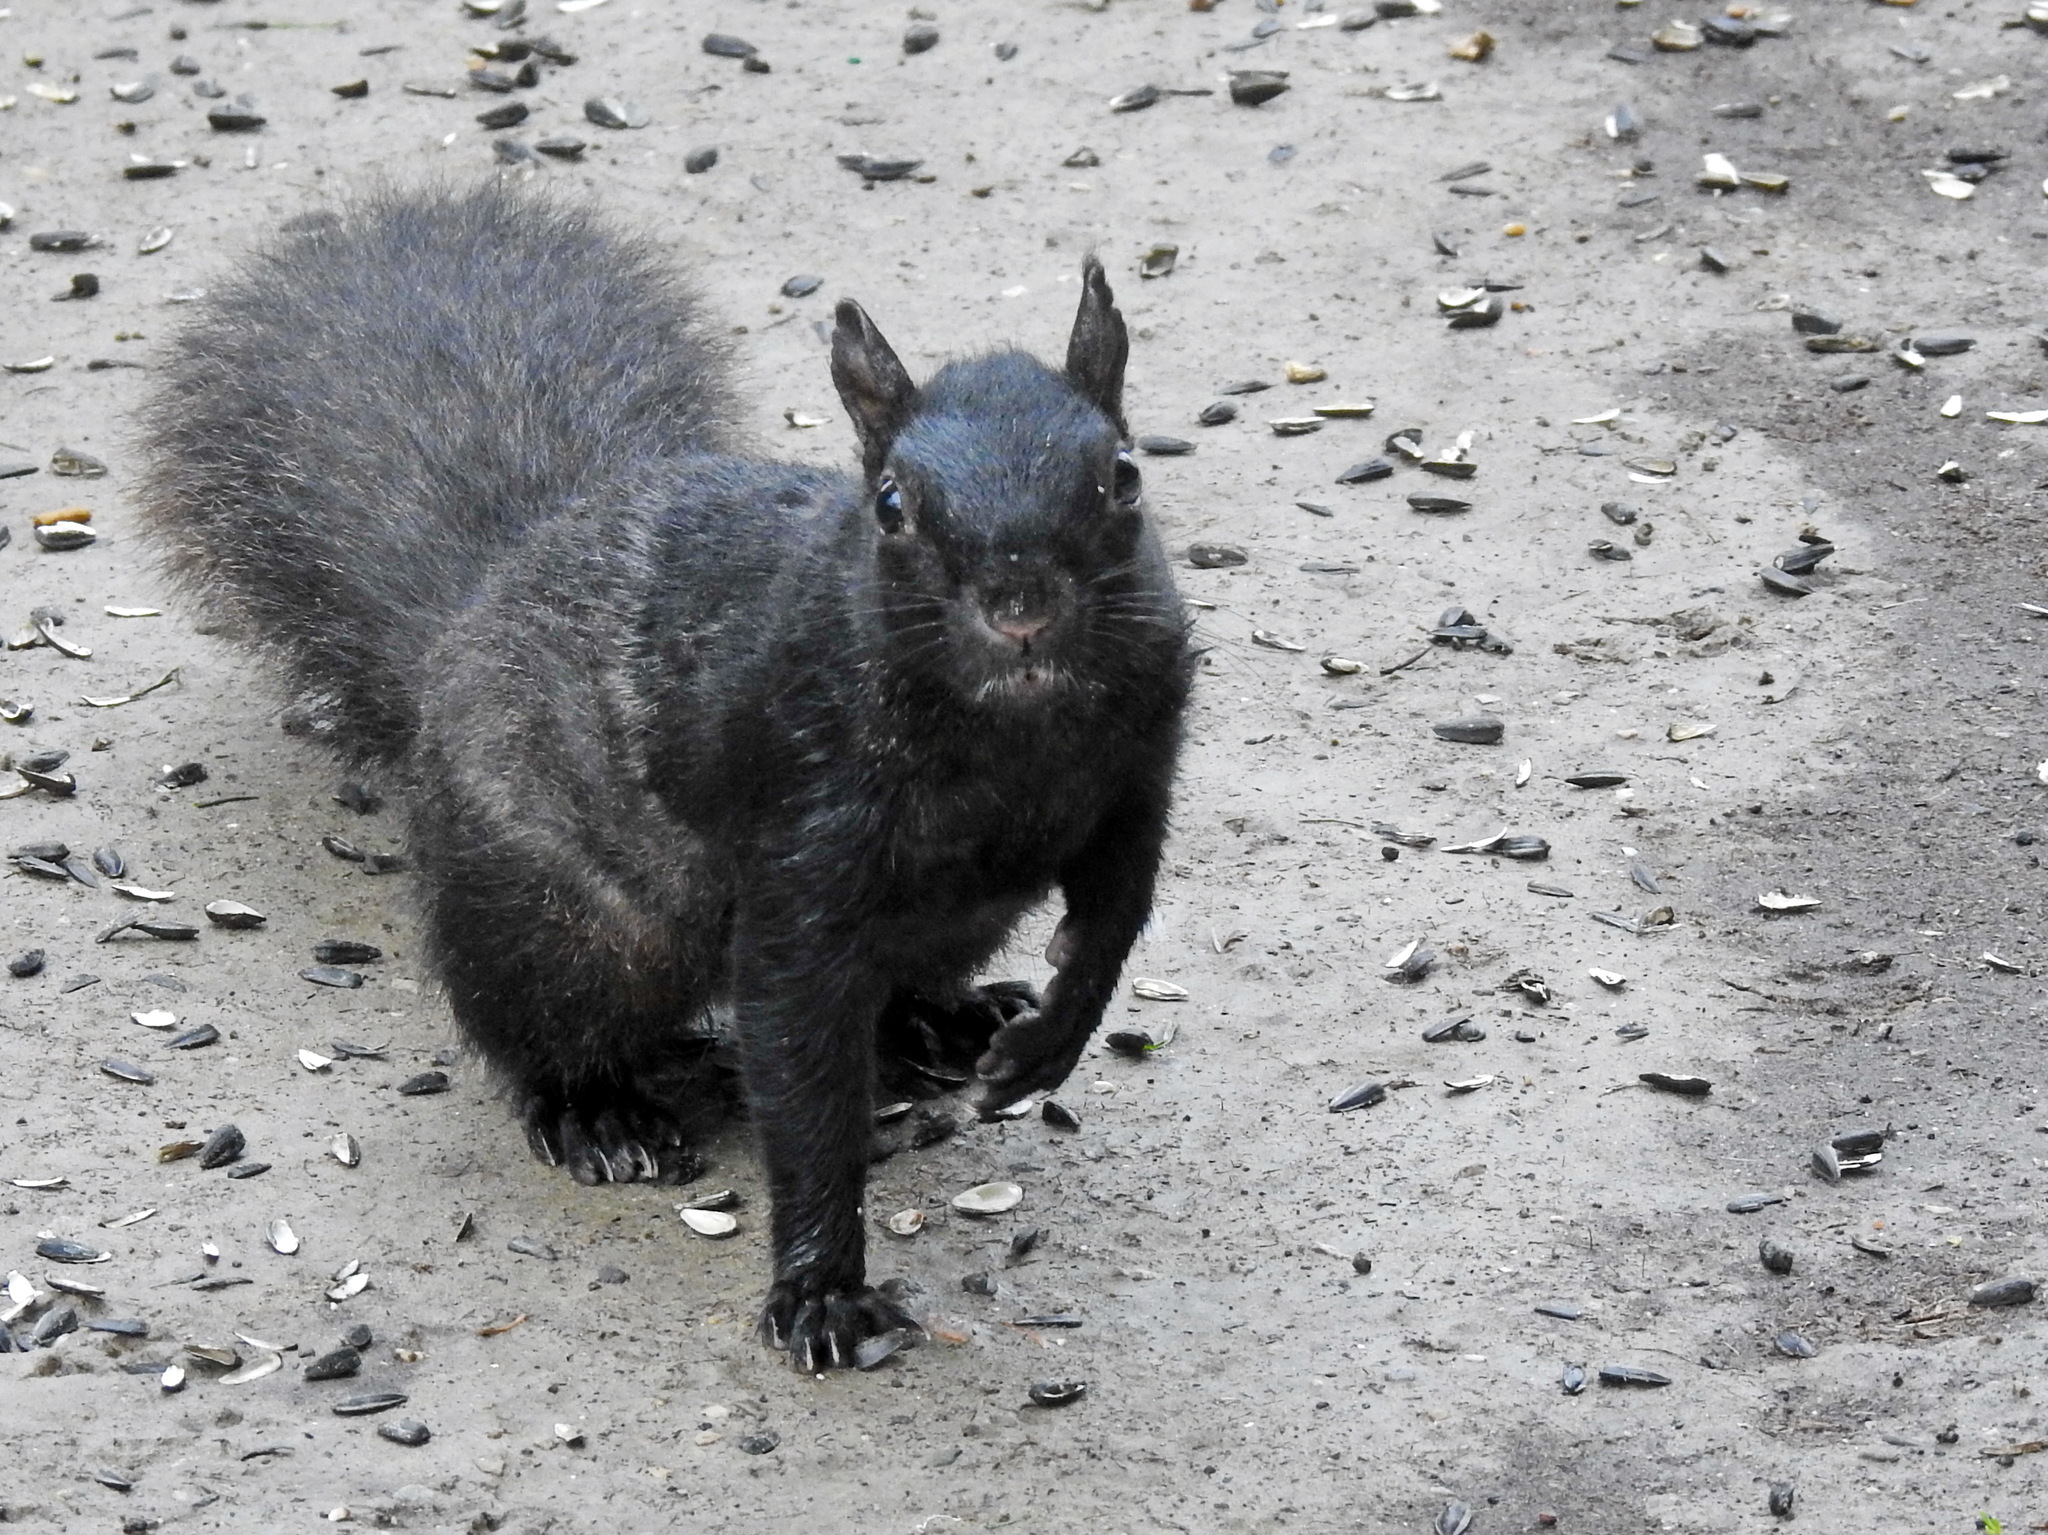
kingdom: Animalia
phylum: Chordata
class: Mammalia
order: Rodentia
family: Sciuridae
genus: Sciurus
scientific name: Sciurus carolinensis
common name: Eastern gray squirrel
